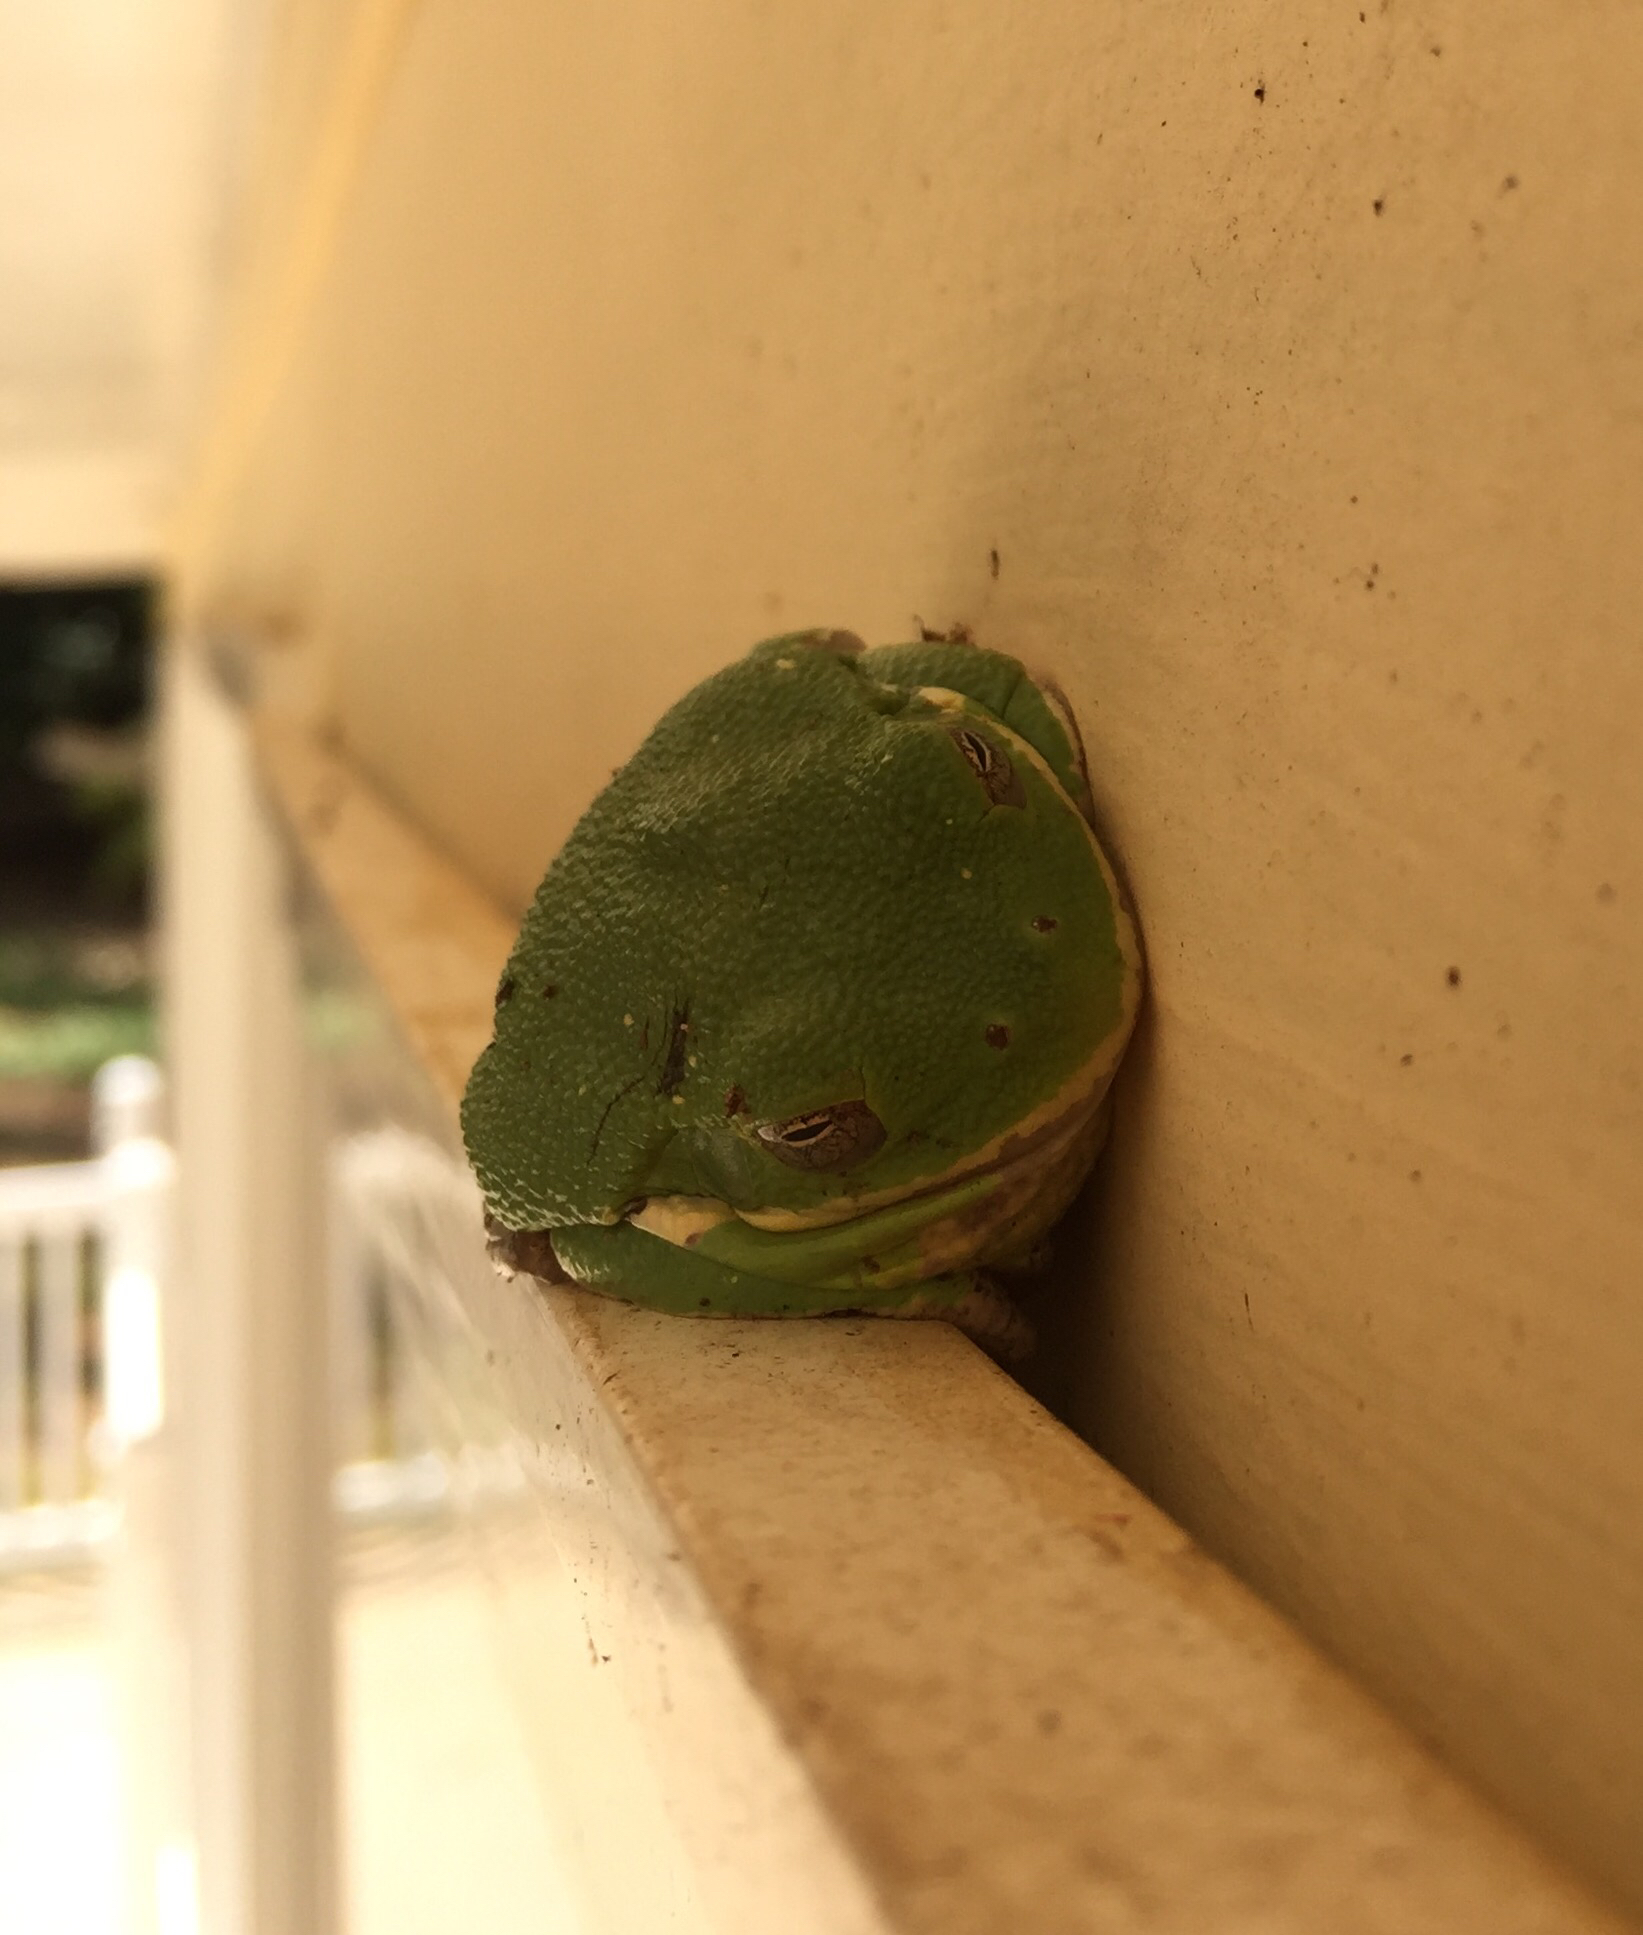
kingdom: Animalia
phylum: Chordata
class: Amphibia
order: Anura
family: Hylidae
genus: Dryophytes
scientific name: Dryophytes gratiosus
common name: Barking treefrog
